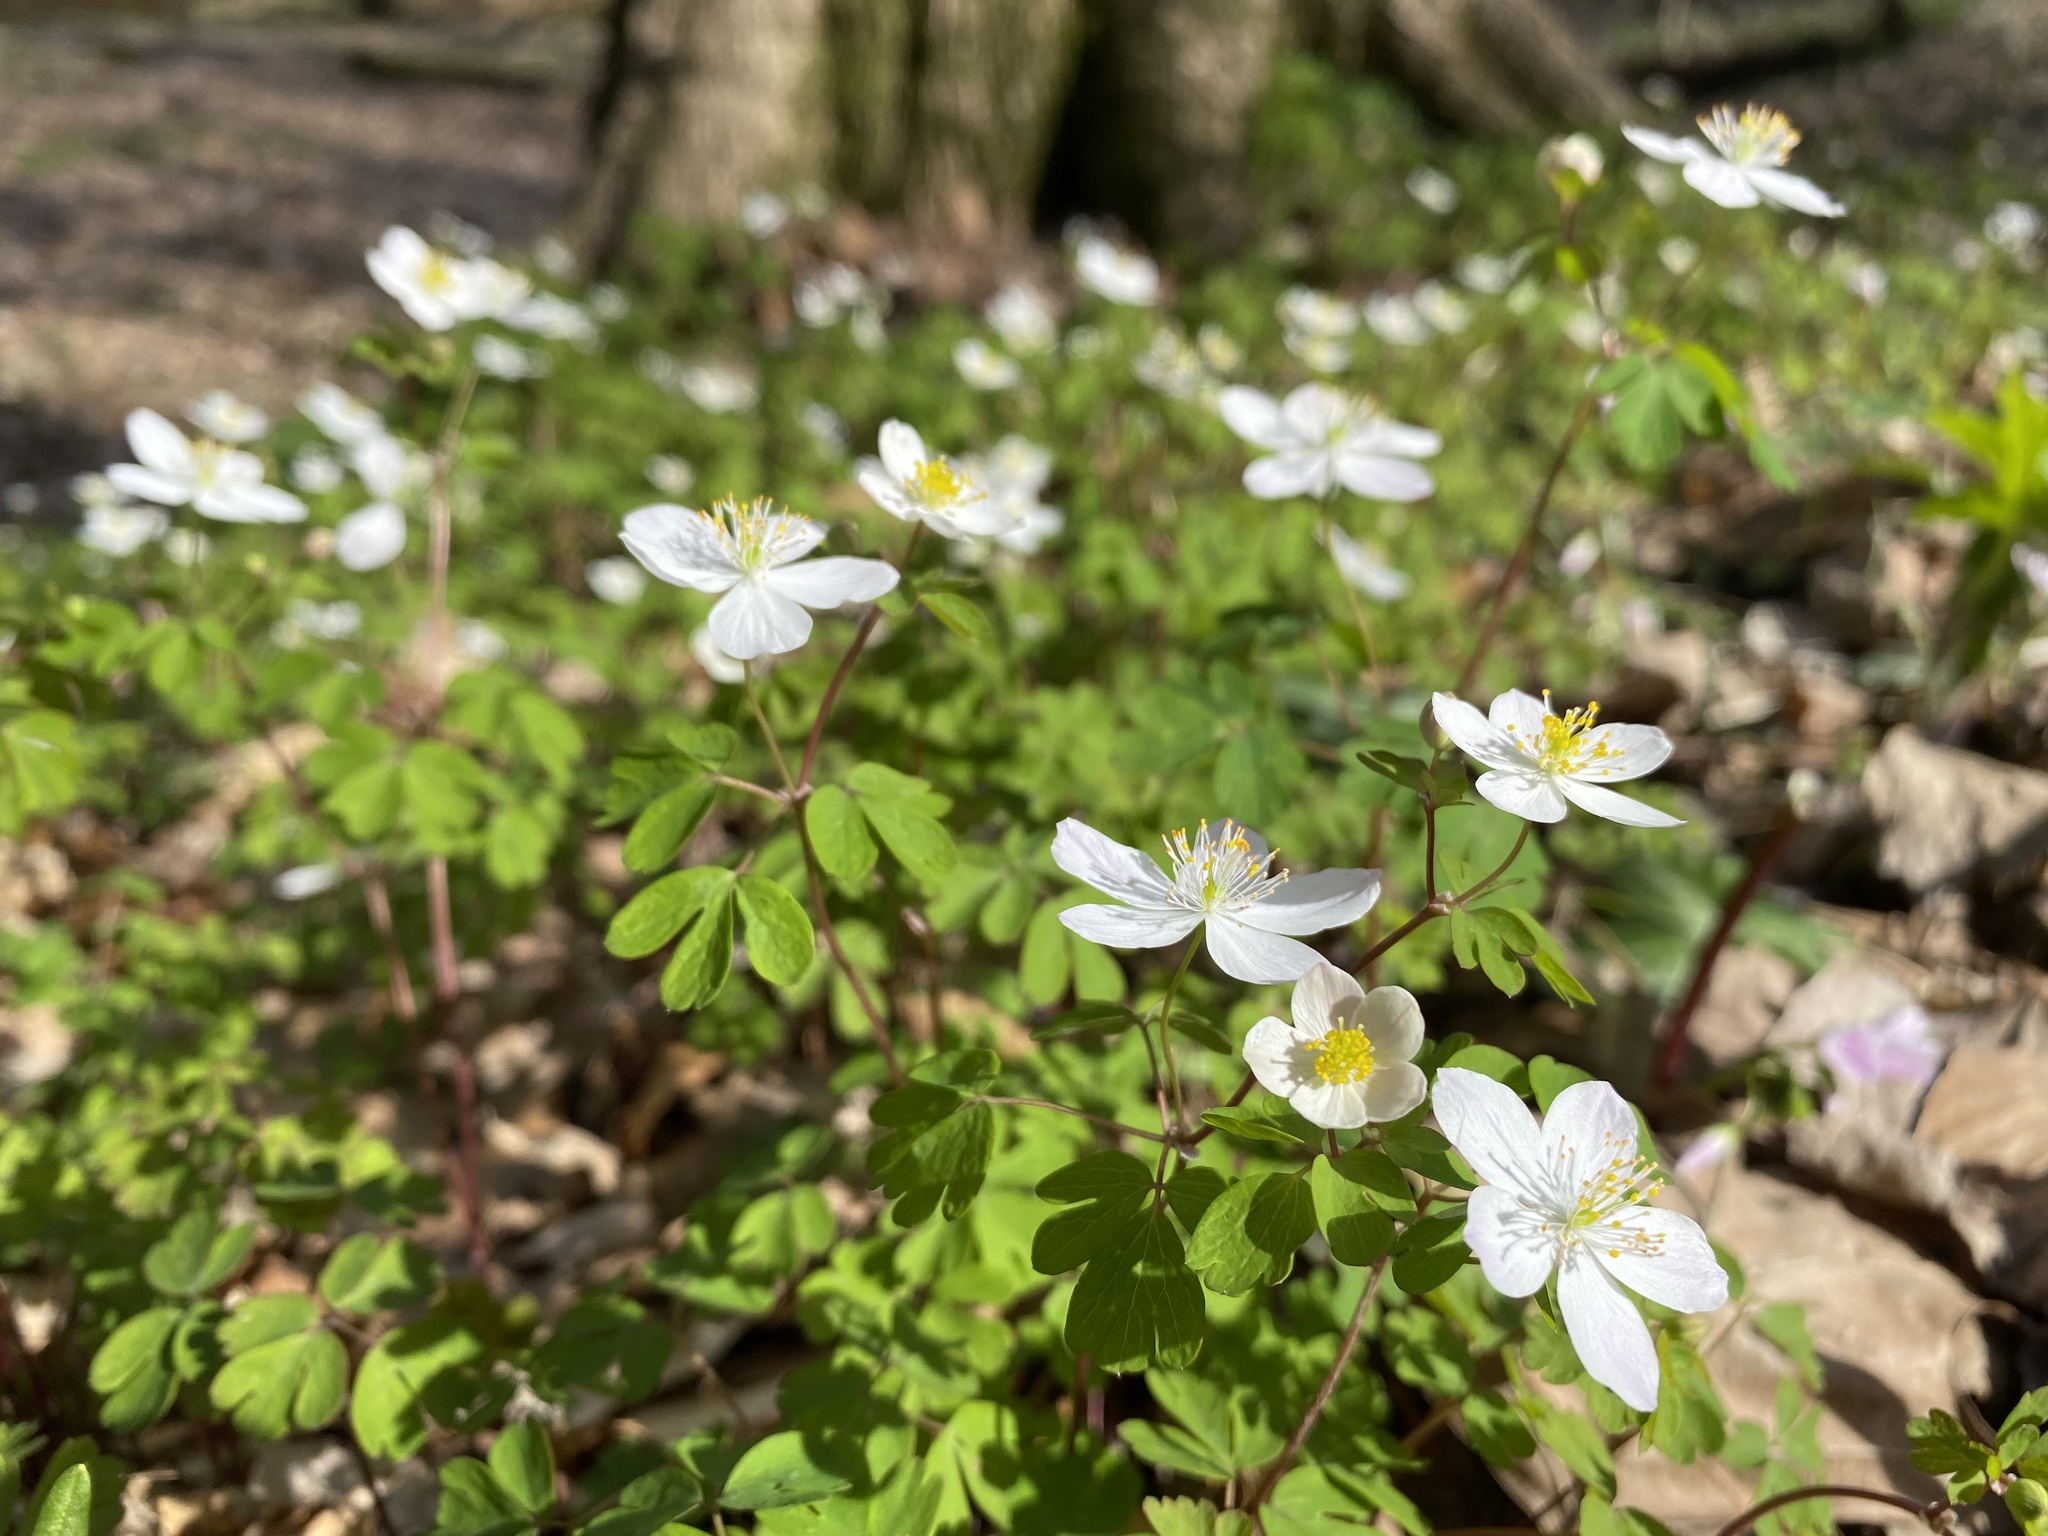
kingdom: Plantae
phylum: Tracheophyta
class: Magnoliopsida
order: Ranunculales
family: Ranunculaceae
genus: Enemion
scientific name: Enemion biternatum
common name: Eastern false rue-anemone
